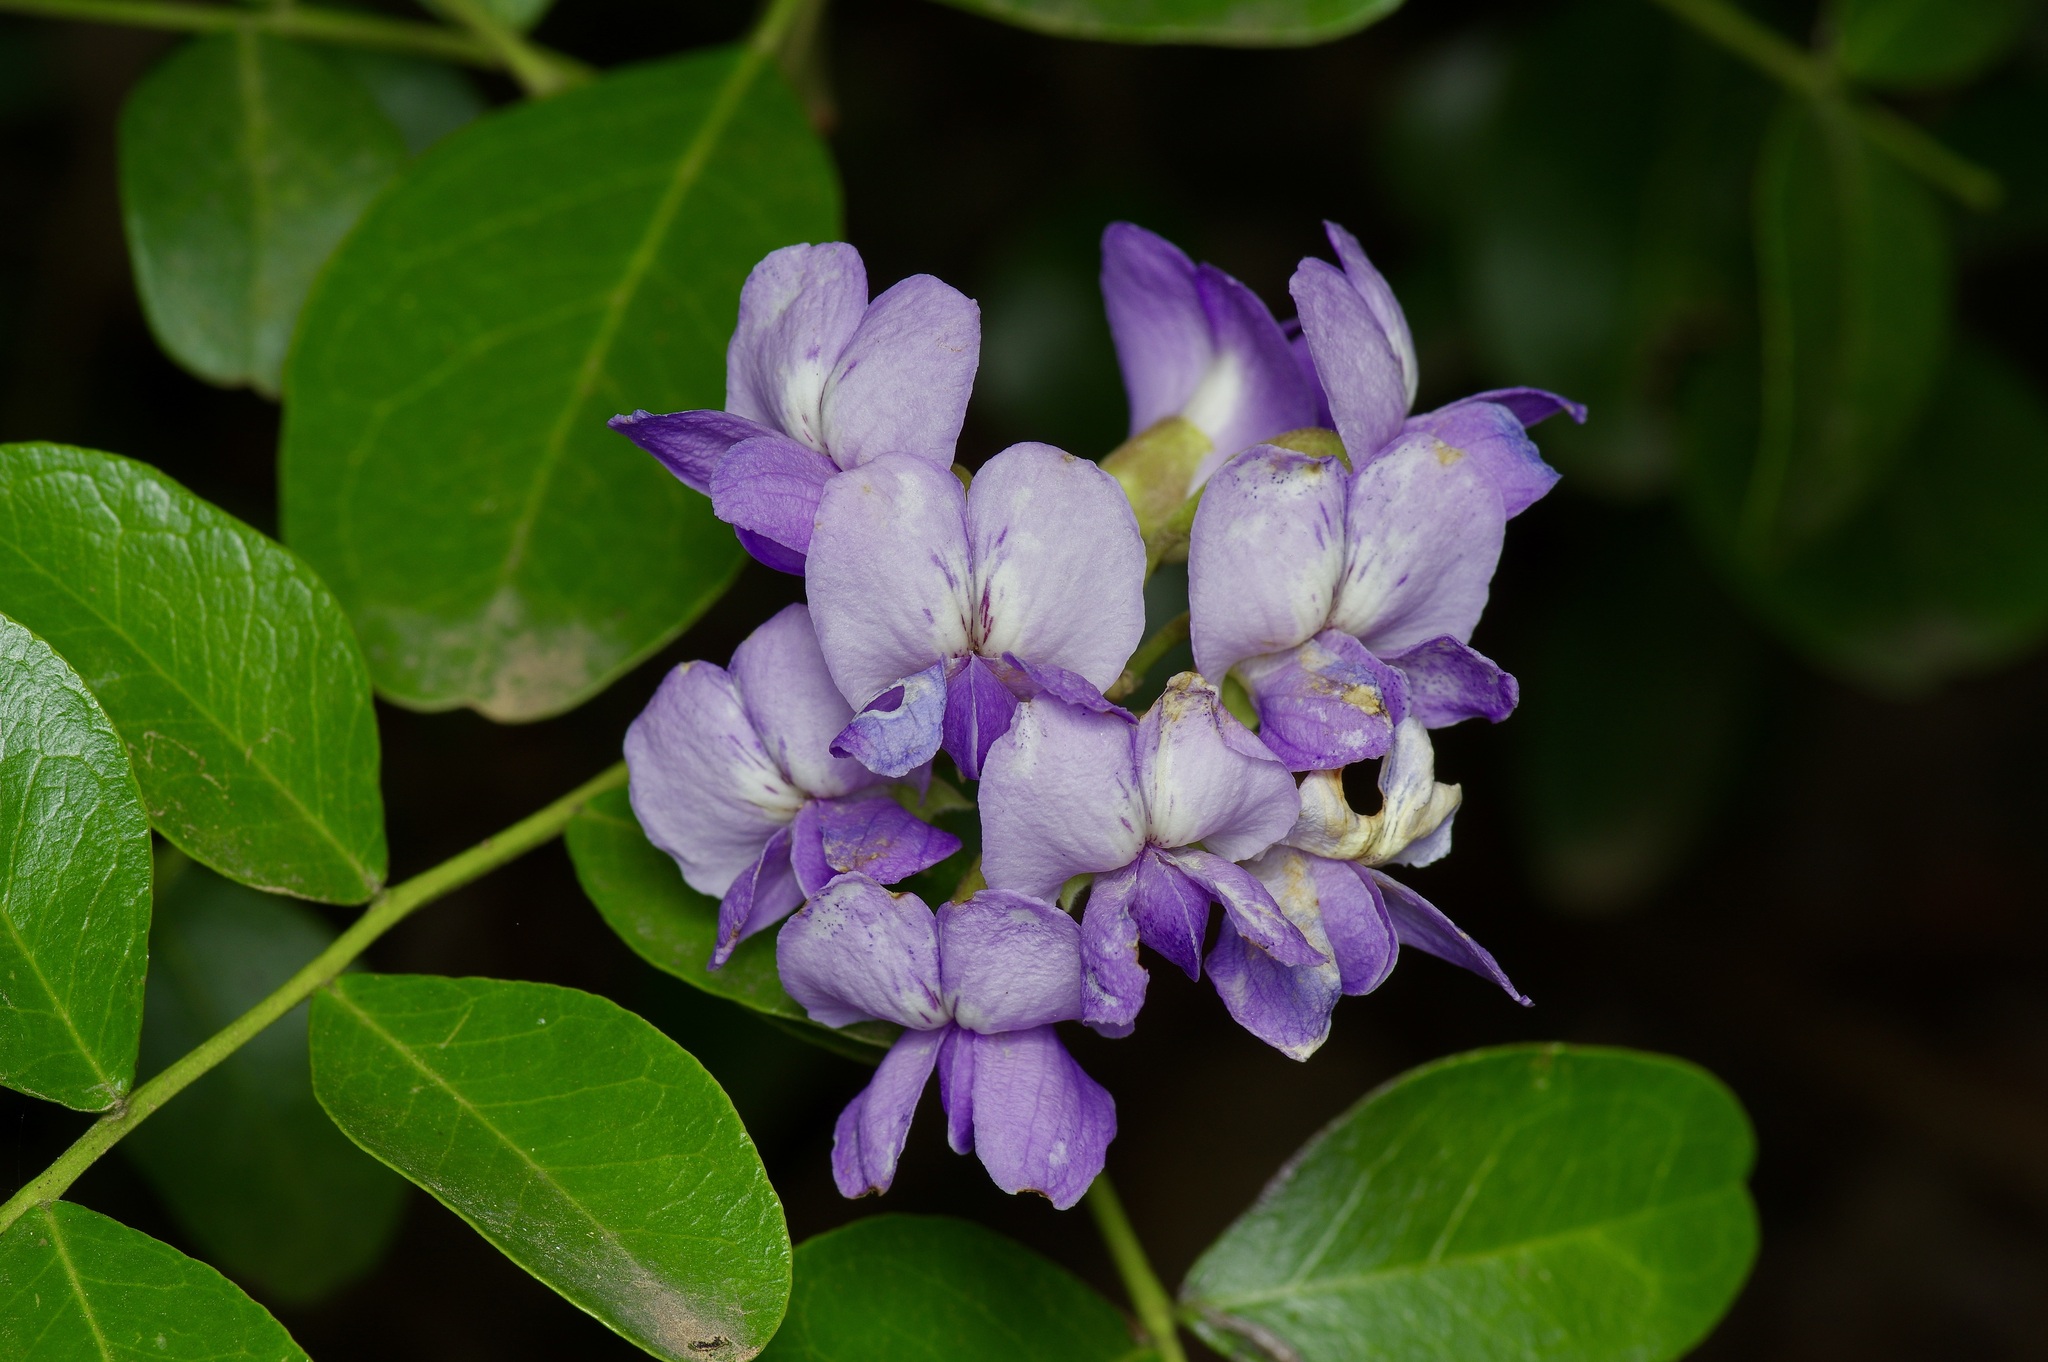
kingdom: Plantae
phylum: Tracheophyta
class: Magnoliopsida
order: Fabales
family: Fabaceae
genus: Dermatophyllum
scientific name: Dermatophyllum secundiflorum
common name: Texas-mountain-laurel
